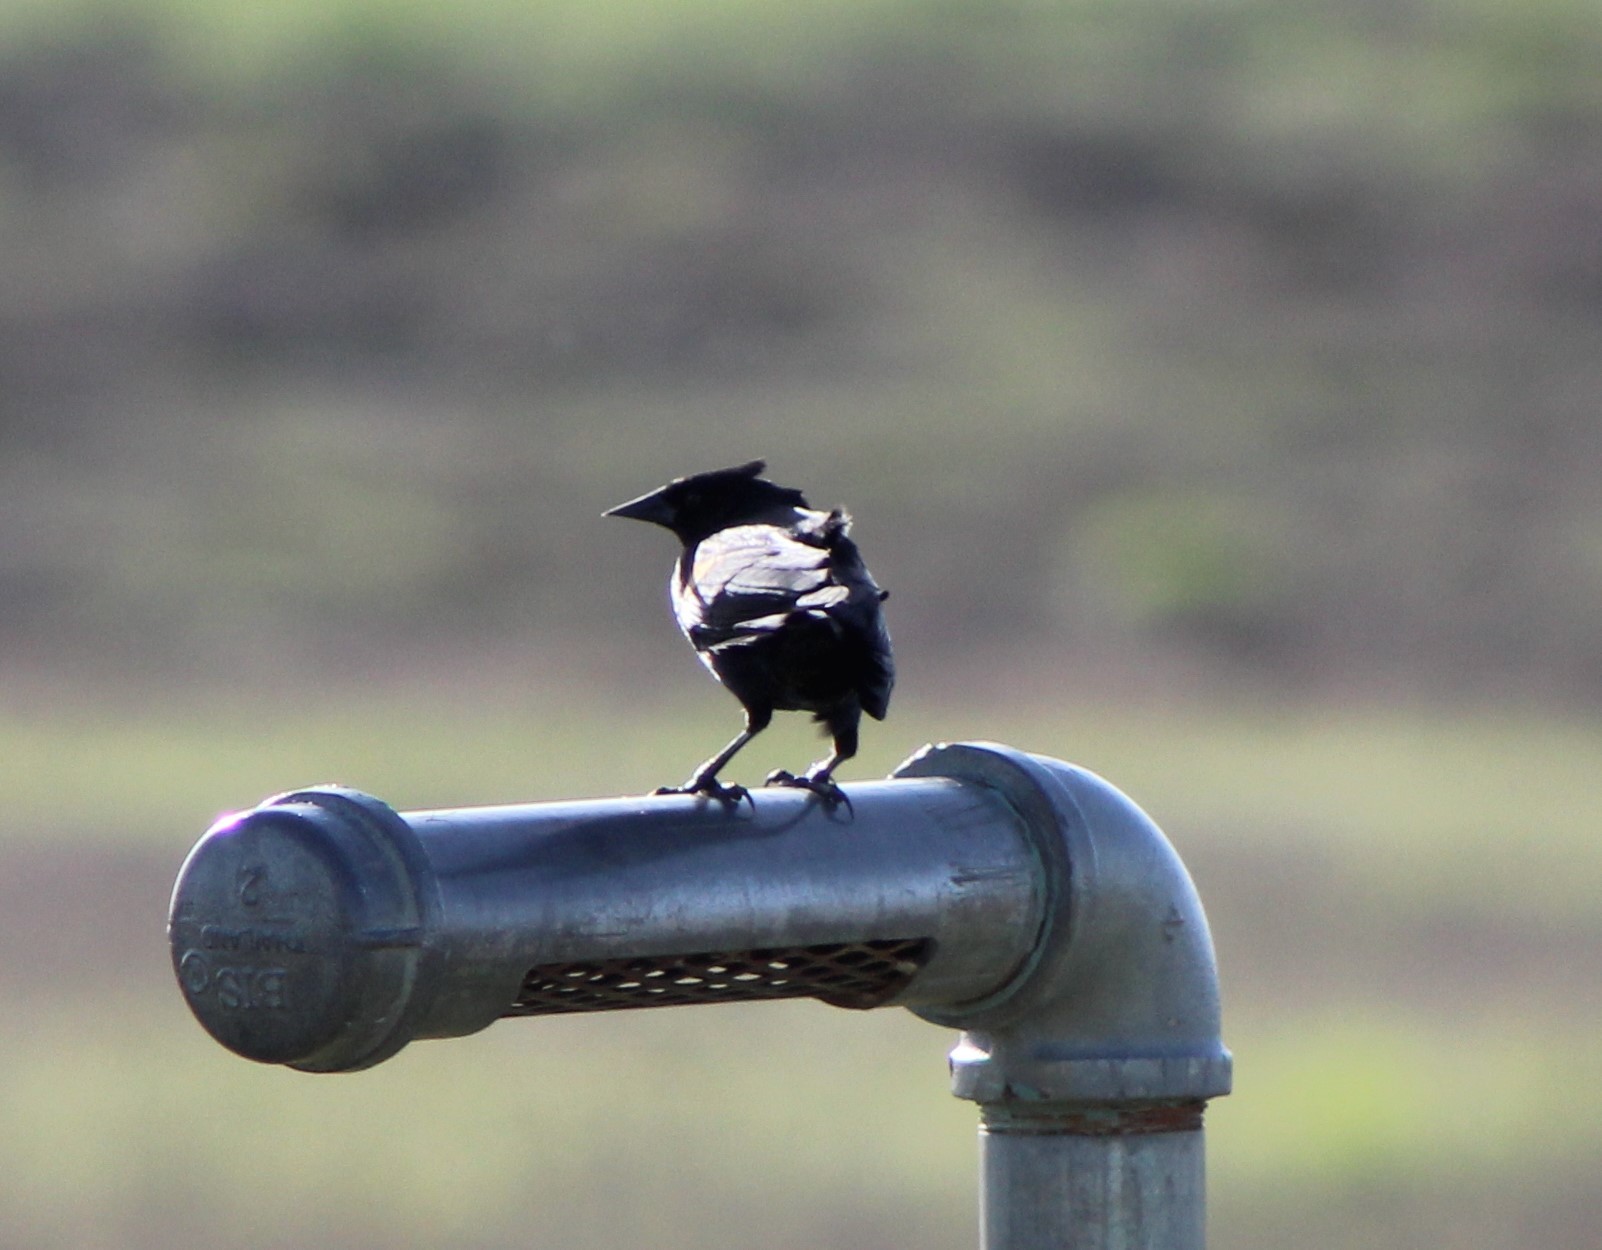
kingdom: Animalia
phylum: Chordata
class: Aves
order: Passeriformes
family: Icteridae
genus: Agelaius
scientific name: Agelaius phoeniceus
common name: Red-winged blackbird
